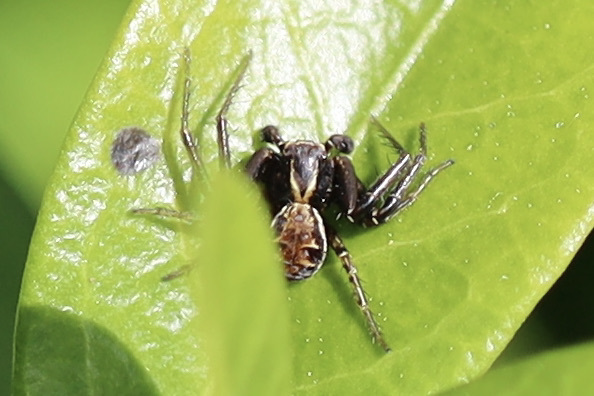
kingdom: Animalia
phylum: Arthropoda
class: Arachnida
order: Araneae
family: Thomisidae
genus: Xysticus
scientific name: Xysticus cristatus
